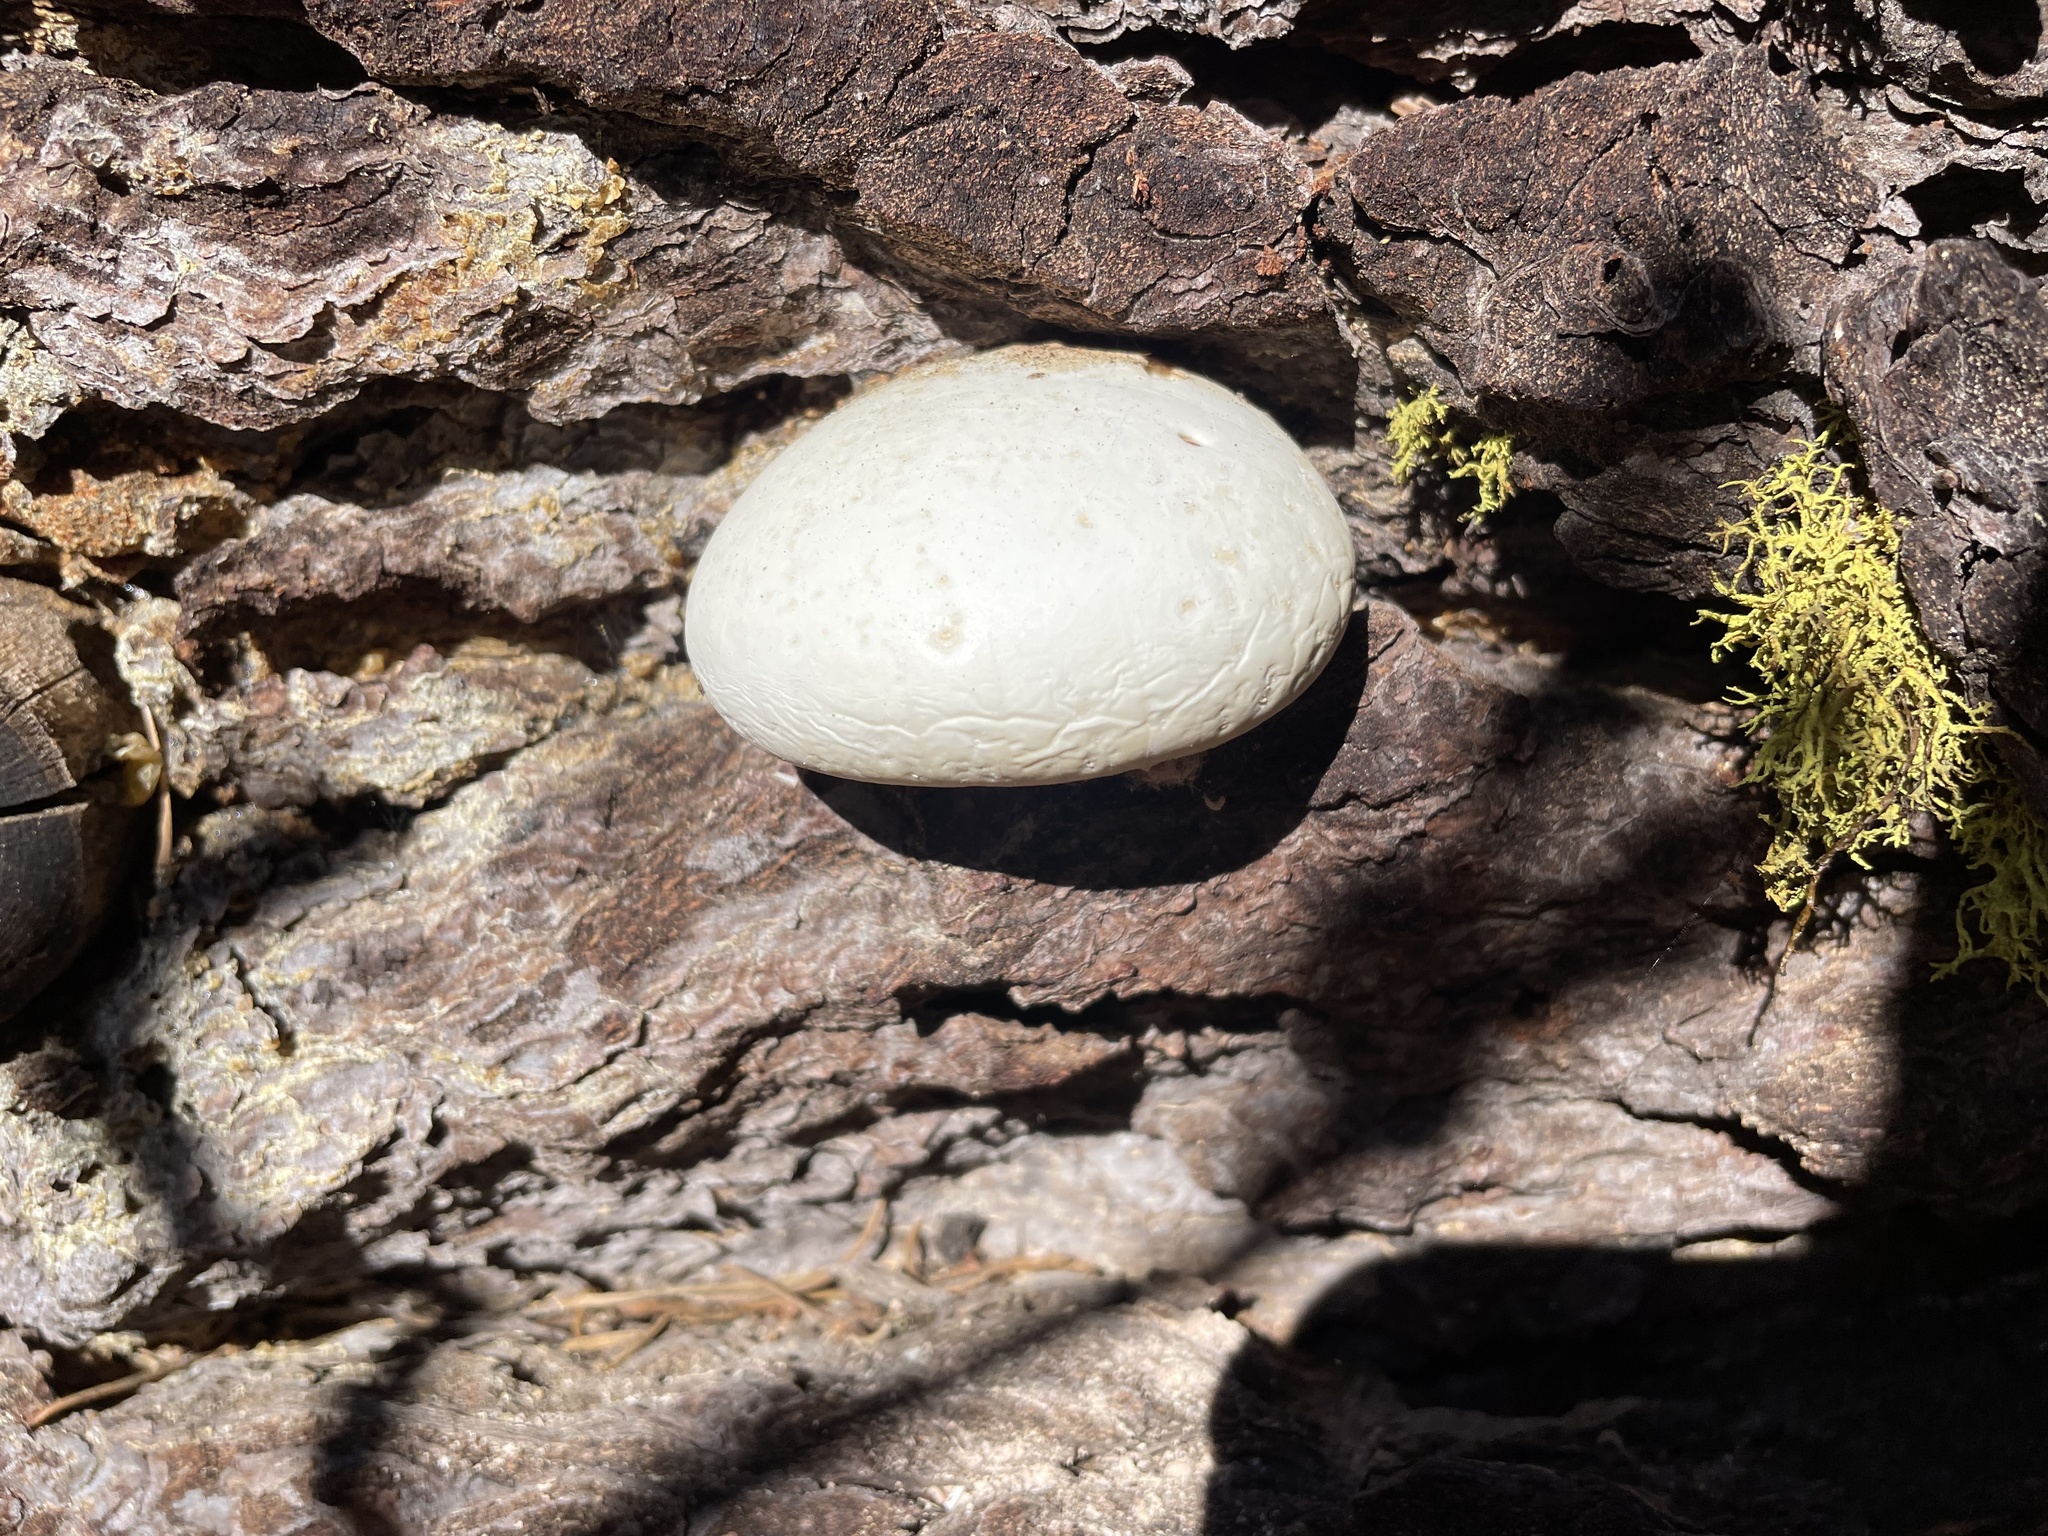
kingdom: Fungi
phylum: Basidiomycota
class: Agaricomycetes
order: Polyporales
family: Polyporaceae
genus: Cryptoporus
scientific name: Cryptoporus volvatus
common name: Veiled polypore
